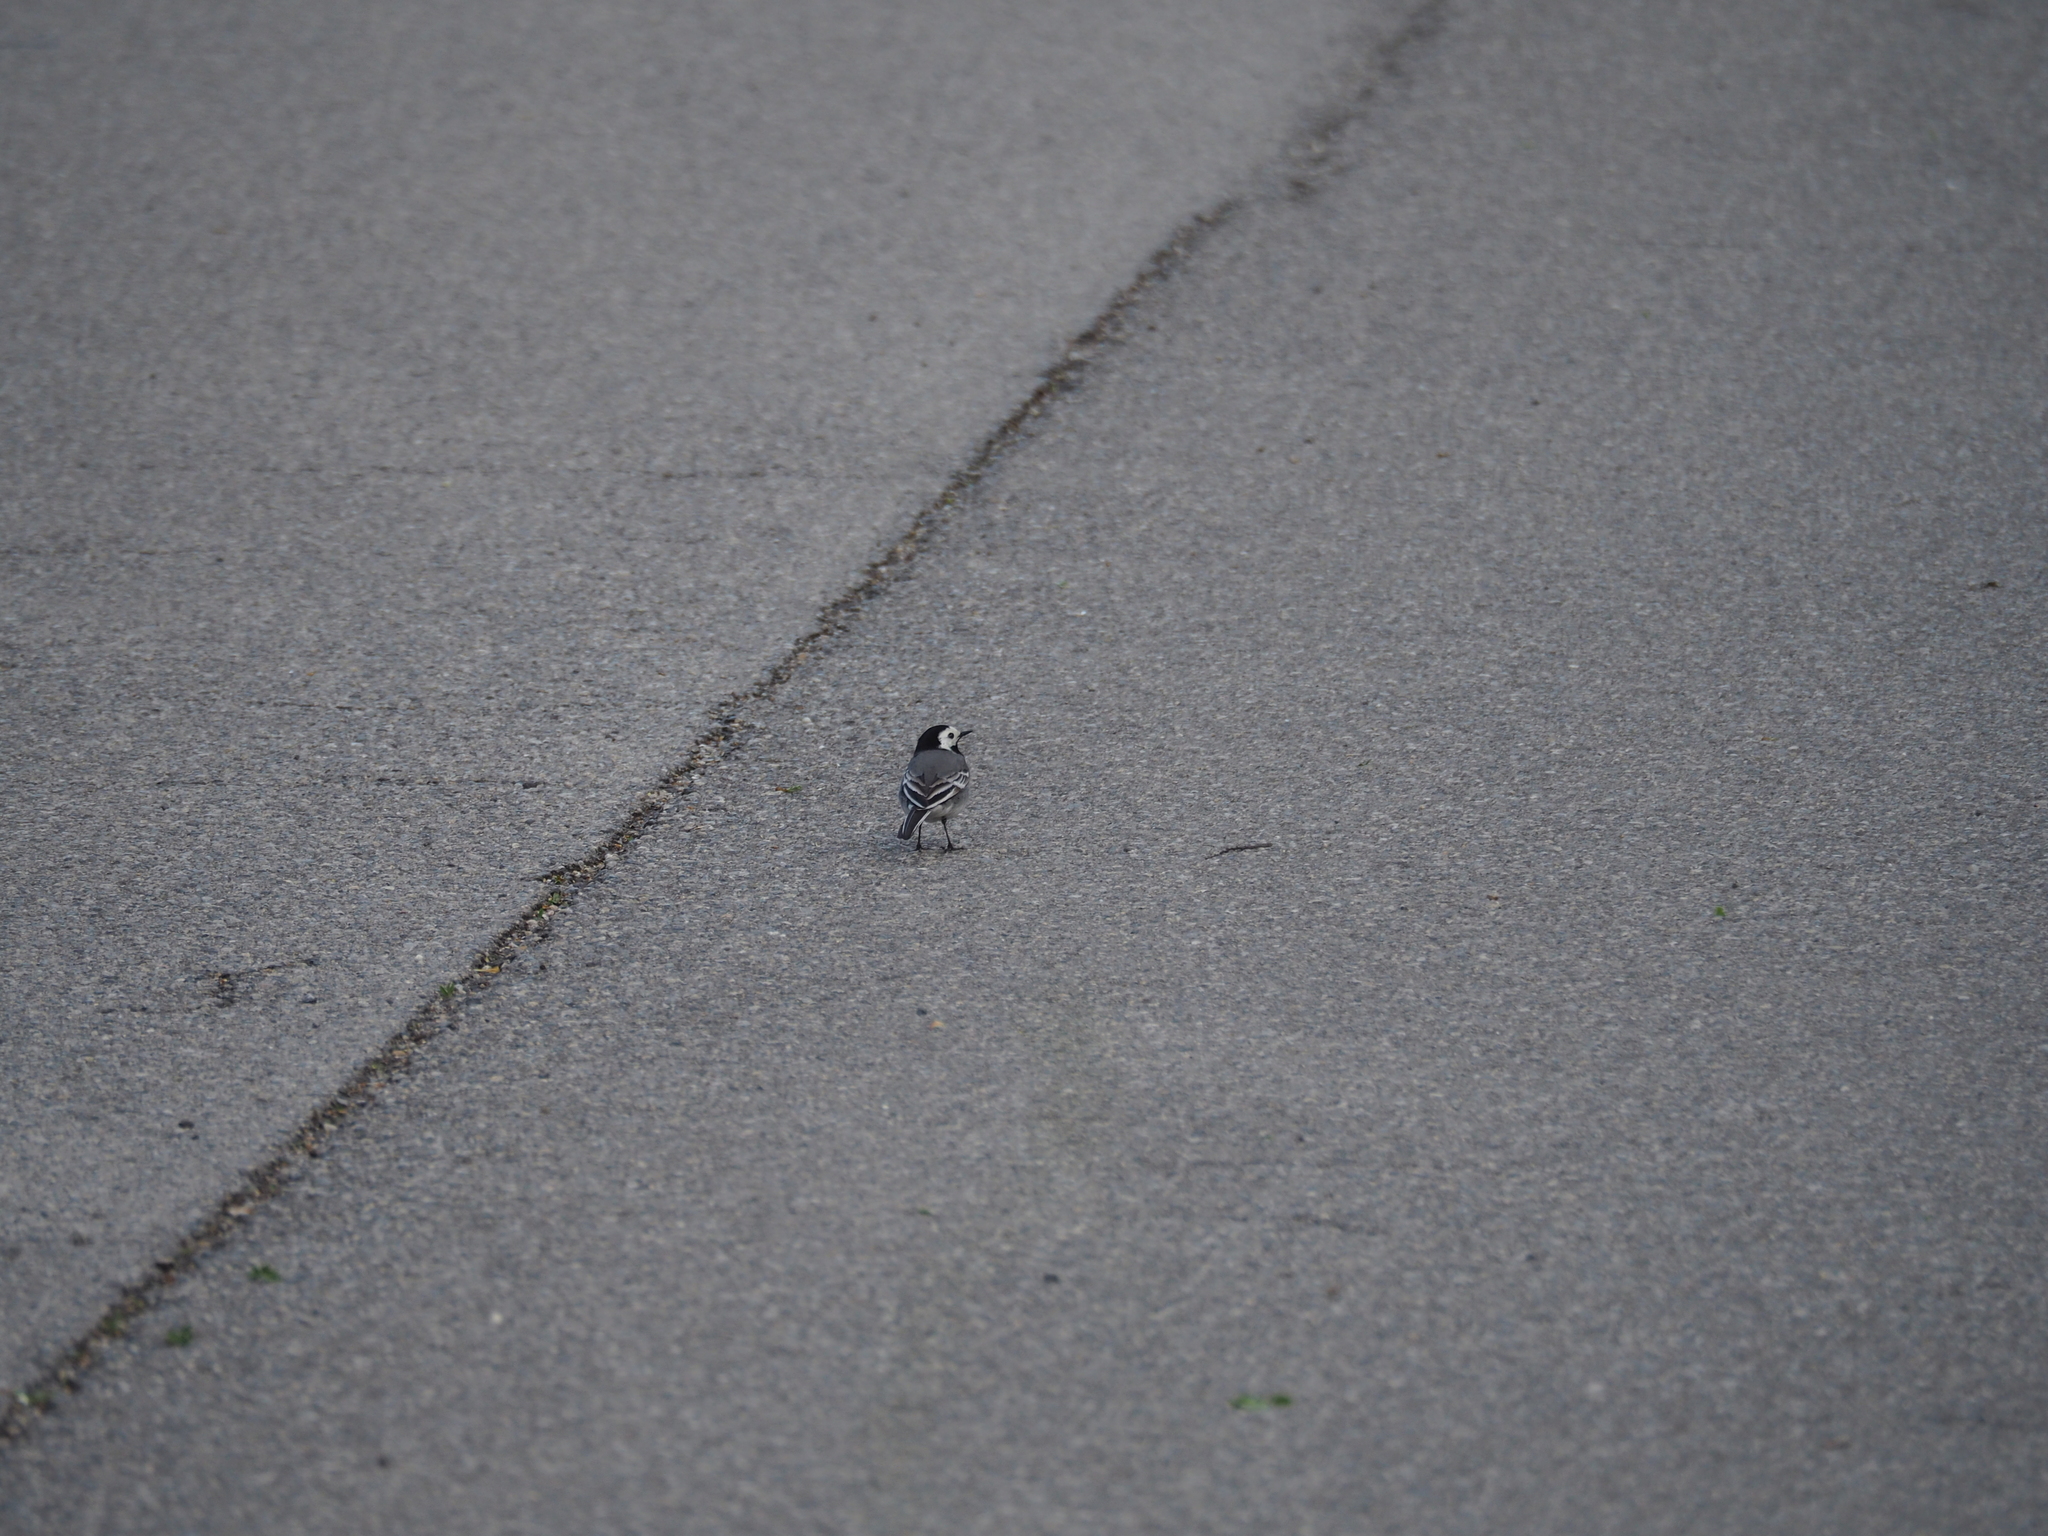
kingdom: Animalia
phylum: Chordata
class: Aves
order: Passeriformes
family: Motacillidae
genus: Motacilla
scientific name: Motacilla alba
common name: White wagtail
